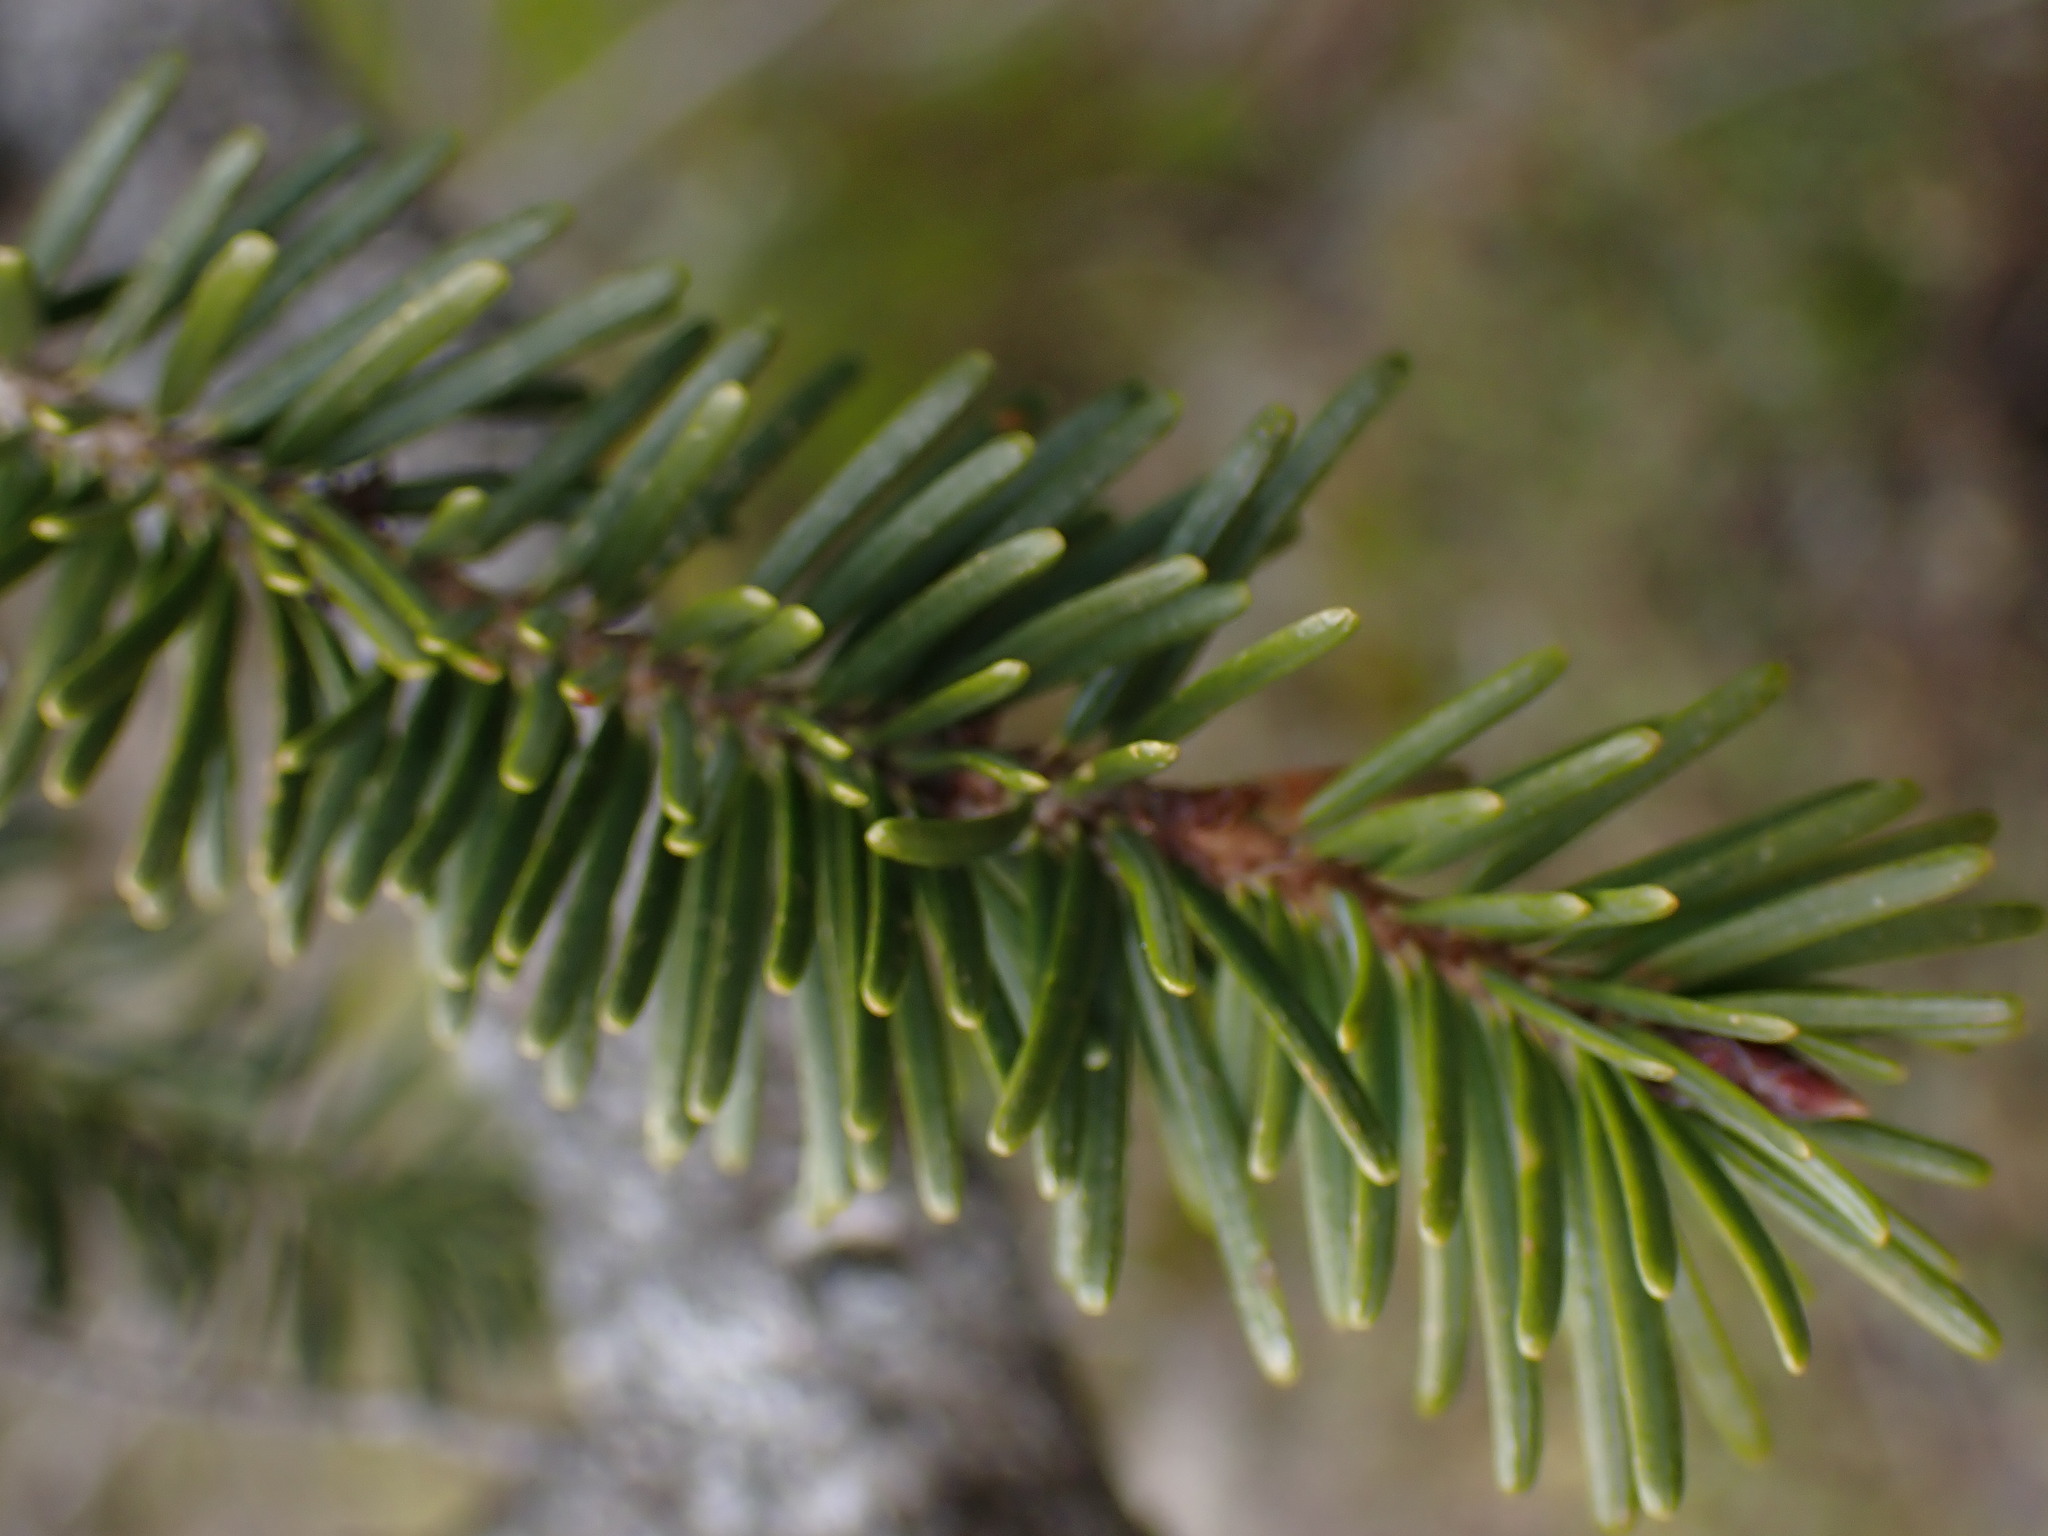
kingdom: Plantae
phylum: Tracheophyta
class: Pinopsida
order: Pinales
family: Pinaceae
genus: Pseudotsuga
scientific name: Pseudotsuga menziesii
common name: Douglas fir
